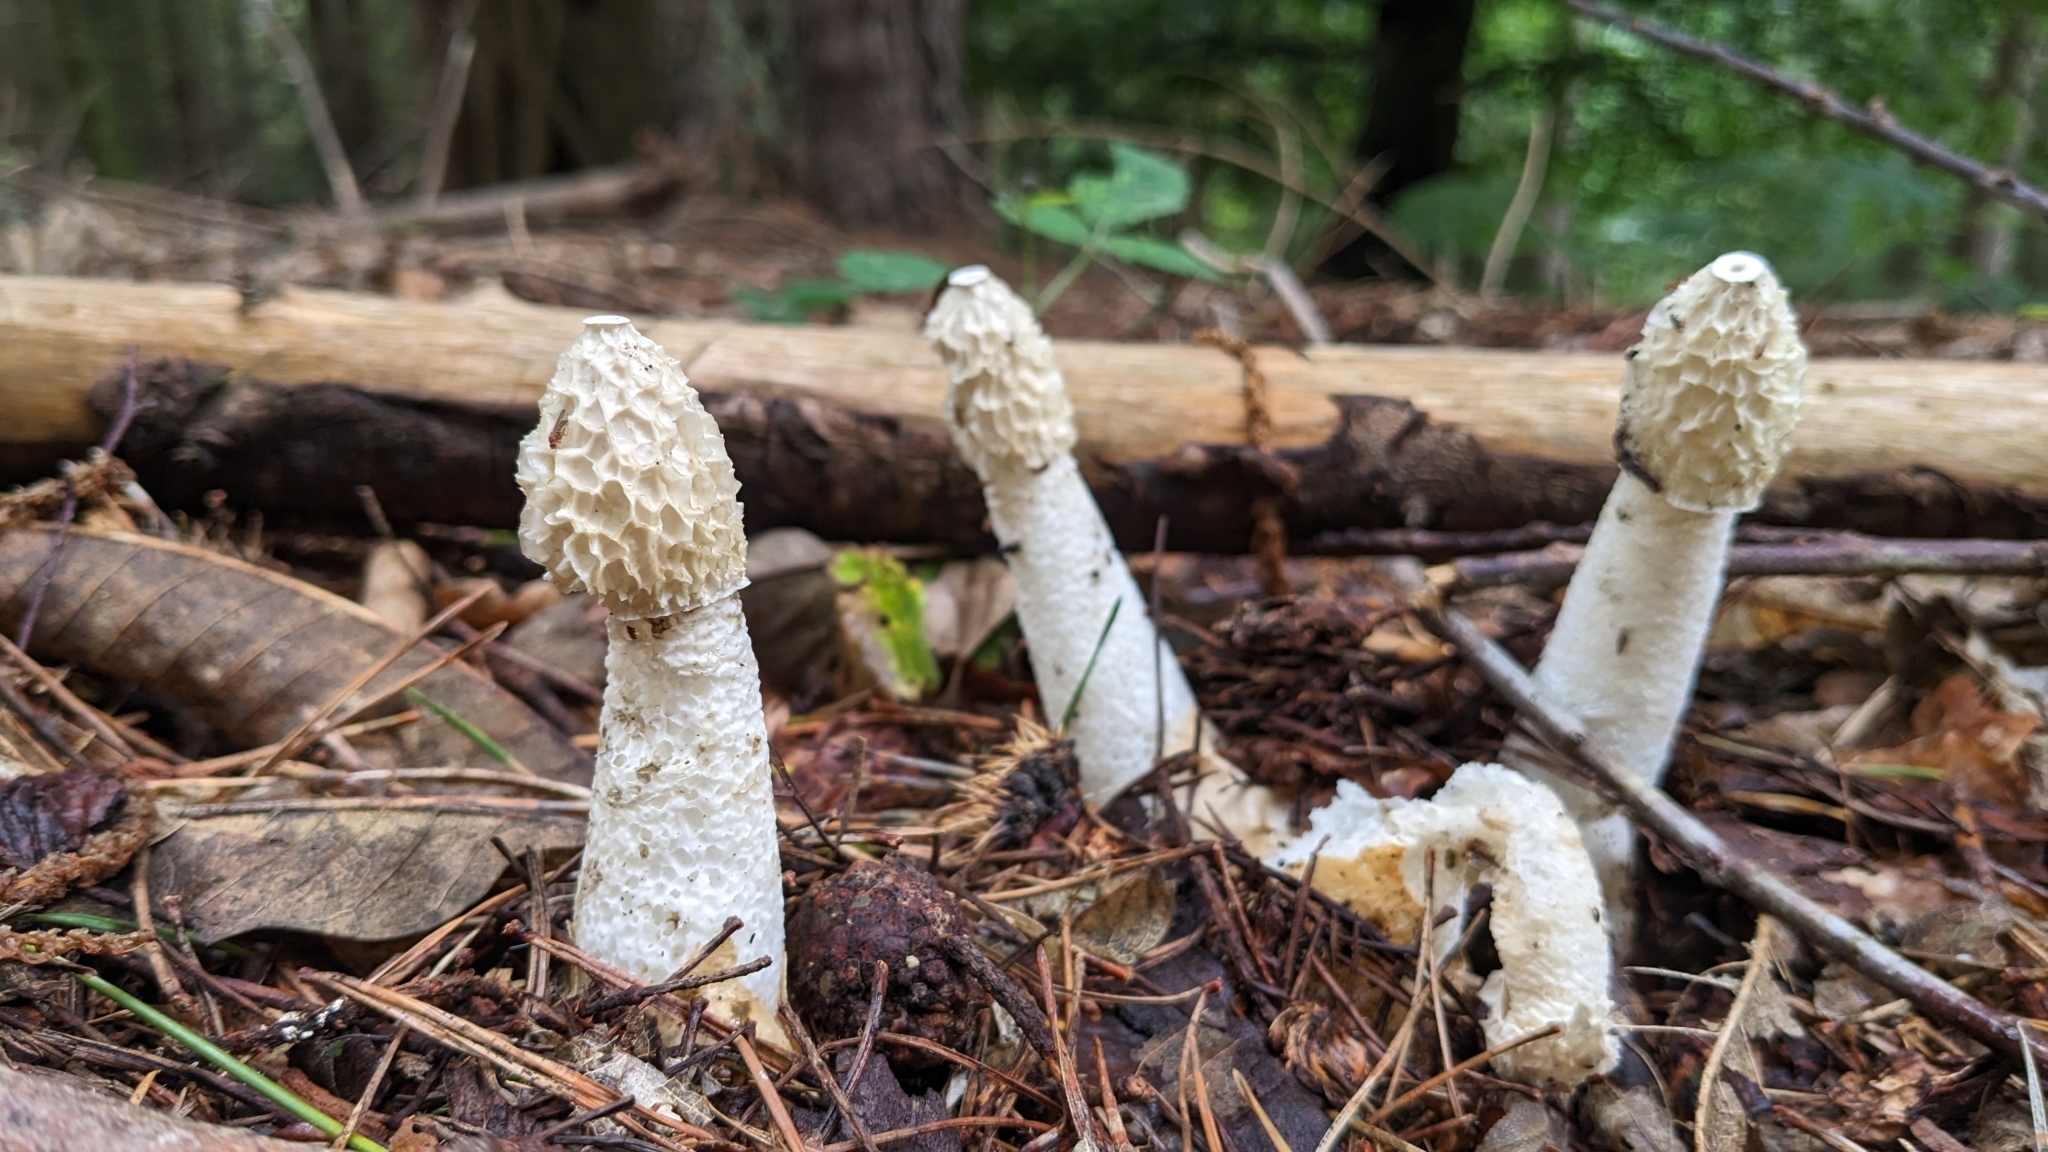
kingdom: Fungi
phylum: Basidiomycota
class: Agaricomycetes
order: Phallales
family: Phallaceae
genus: Phallus
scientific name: Phallus impudicus
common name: Common stinkhorn
